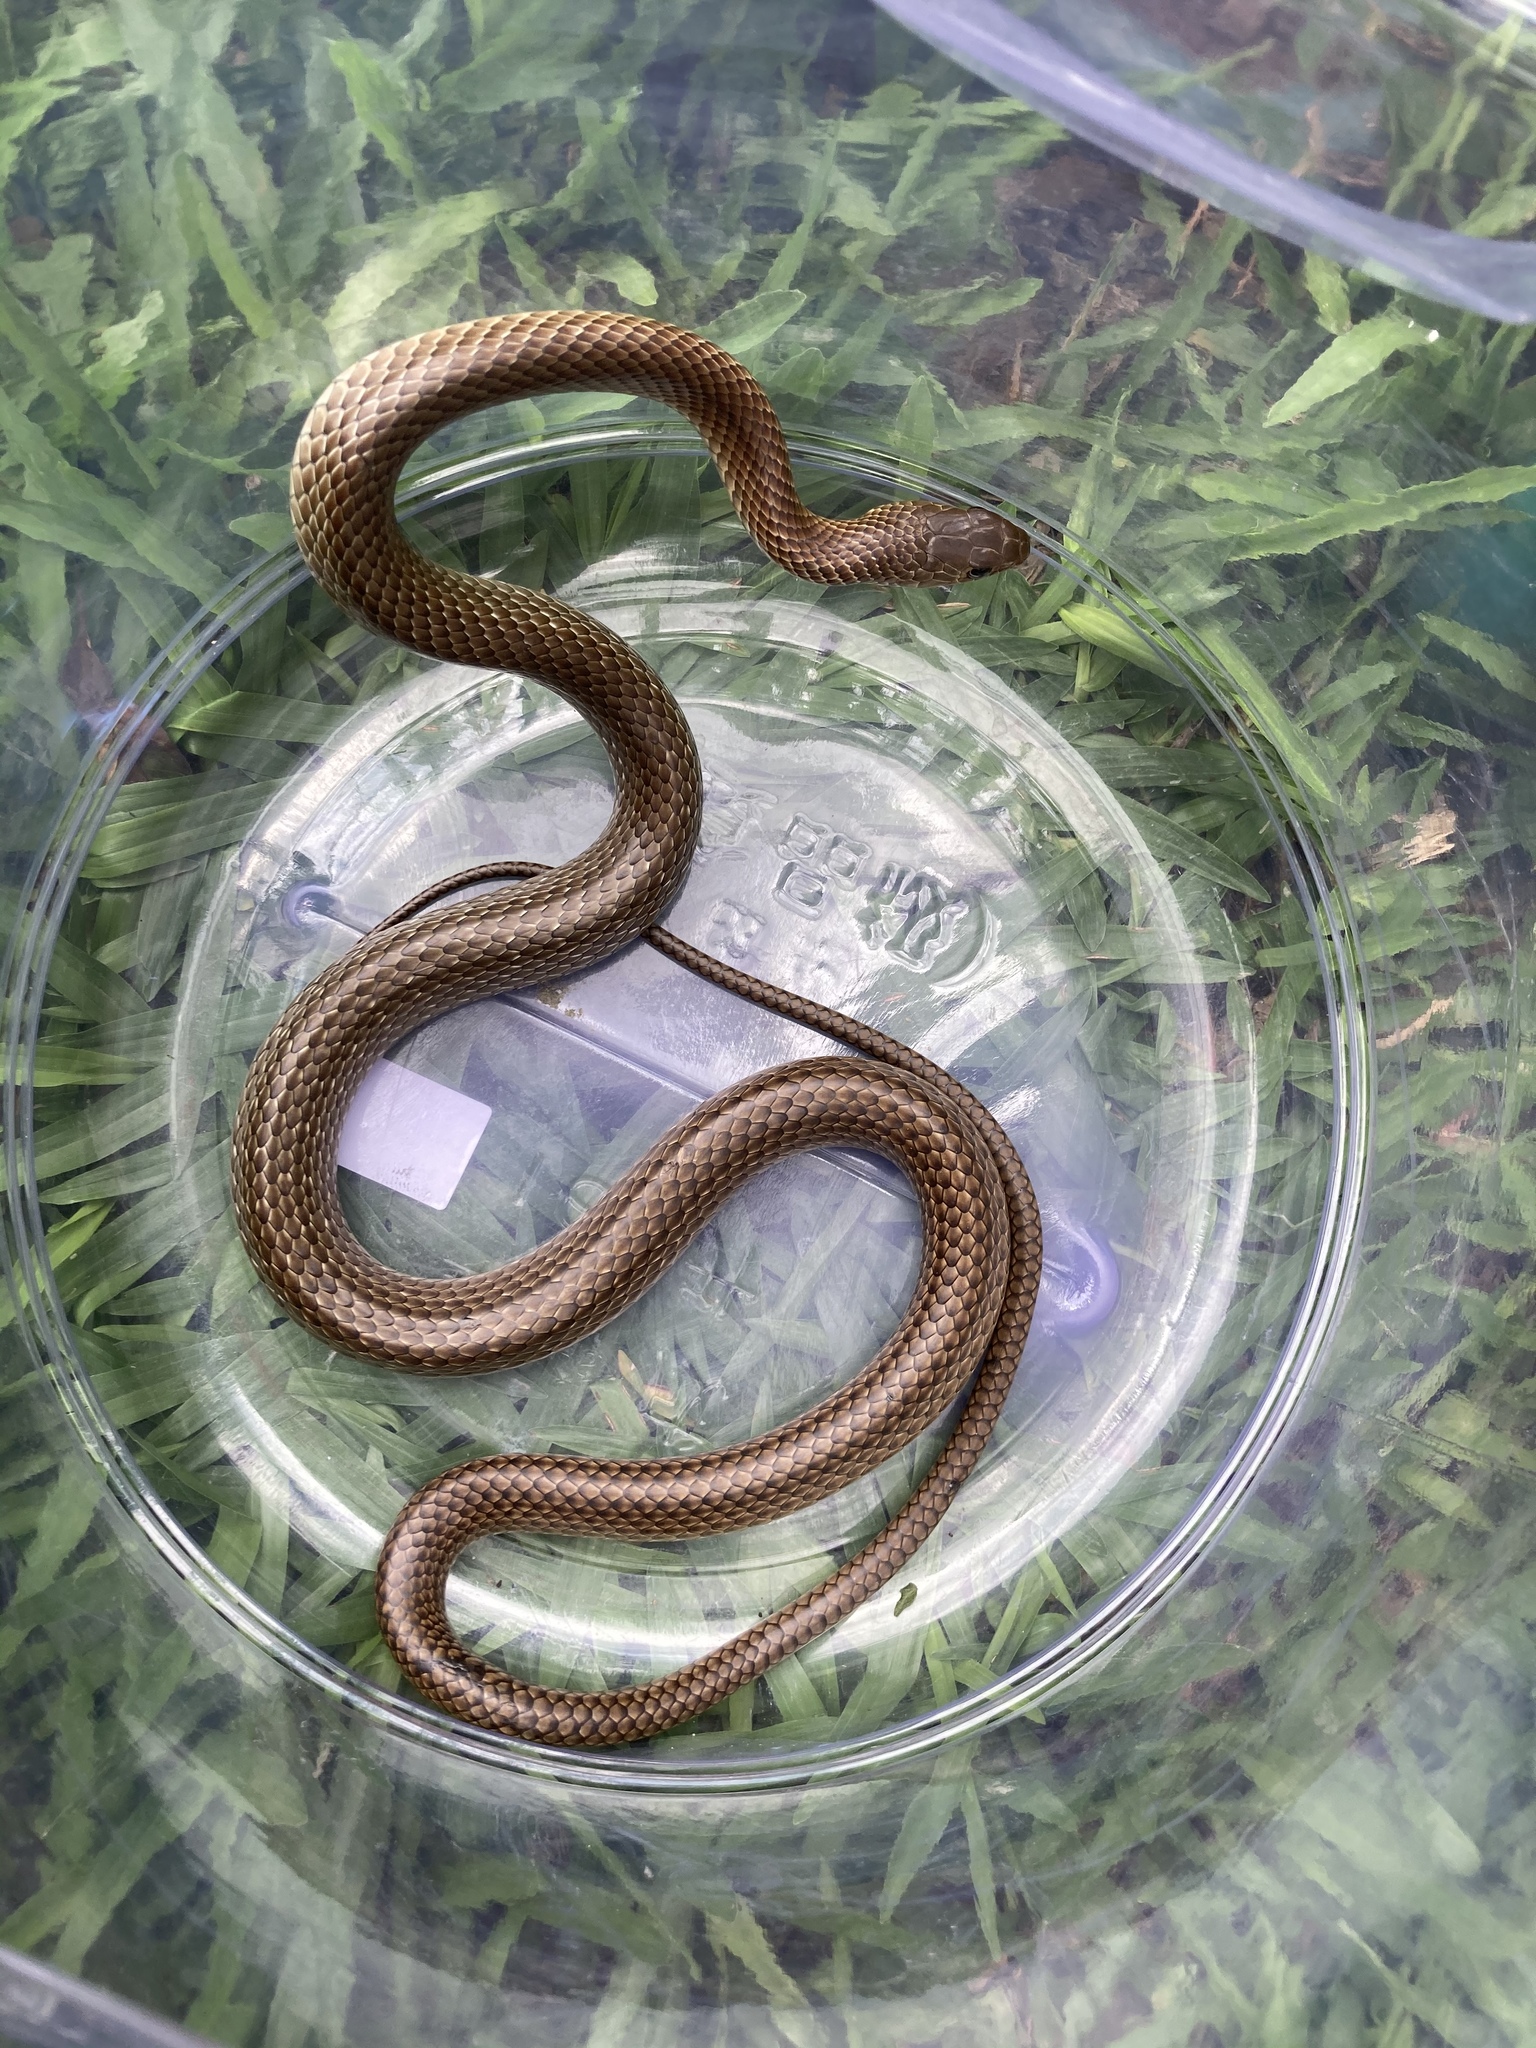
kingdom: Animalia
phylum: Chordata
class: Squamata
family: Colubridae
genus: Ptyas
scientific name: Ptyas korros
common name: Indo-chinese rat snake
